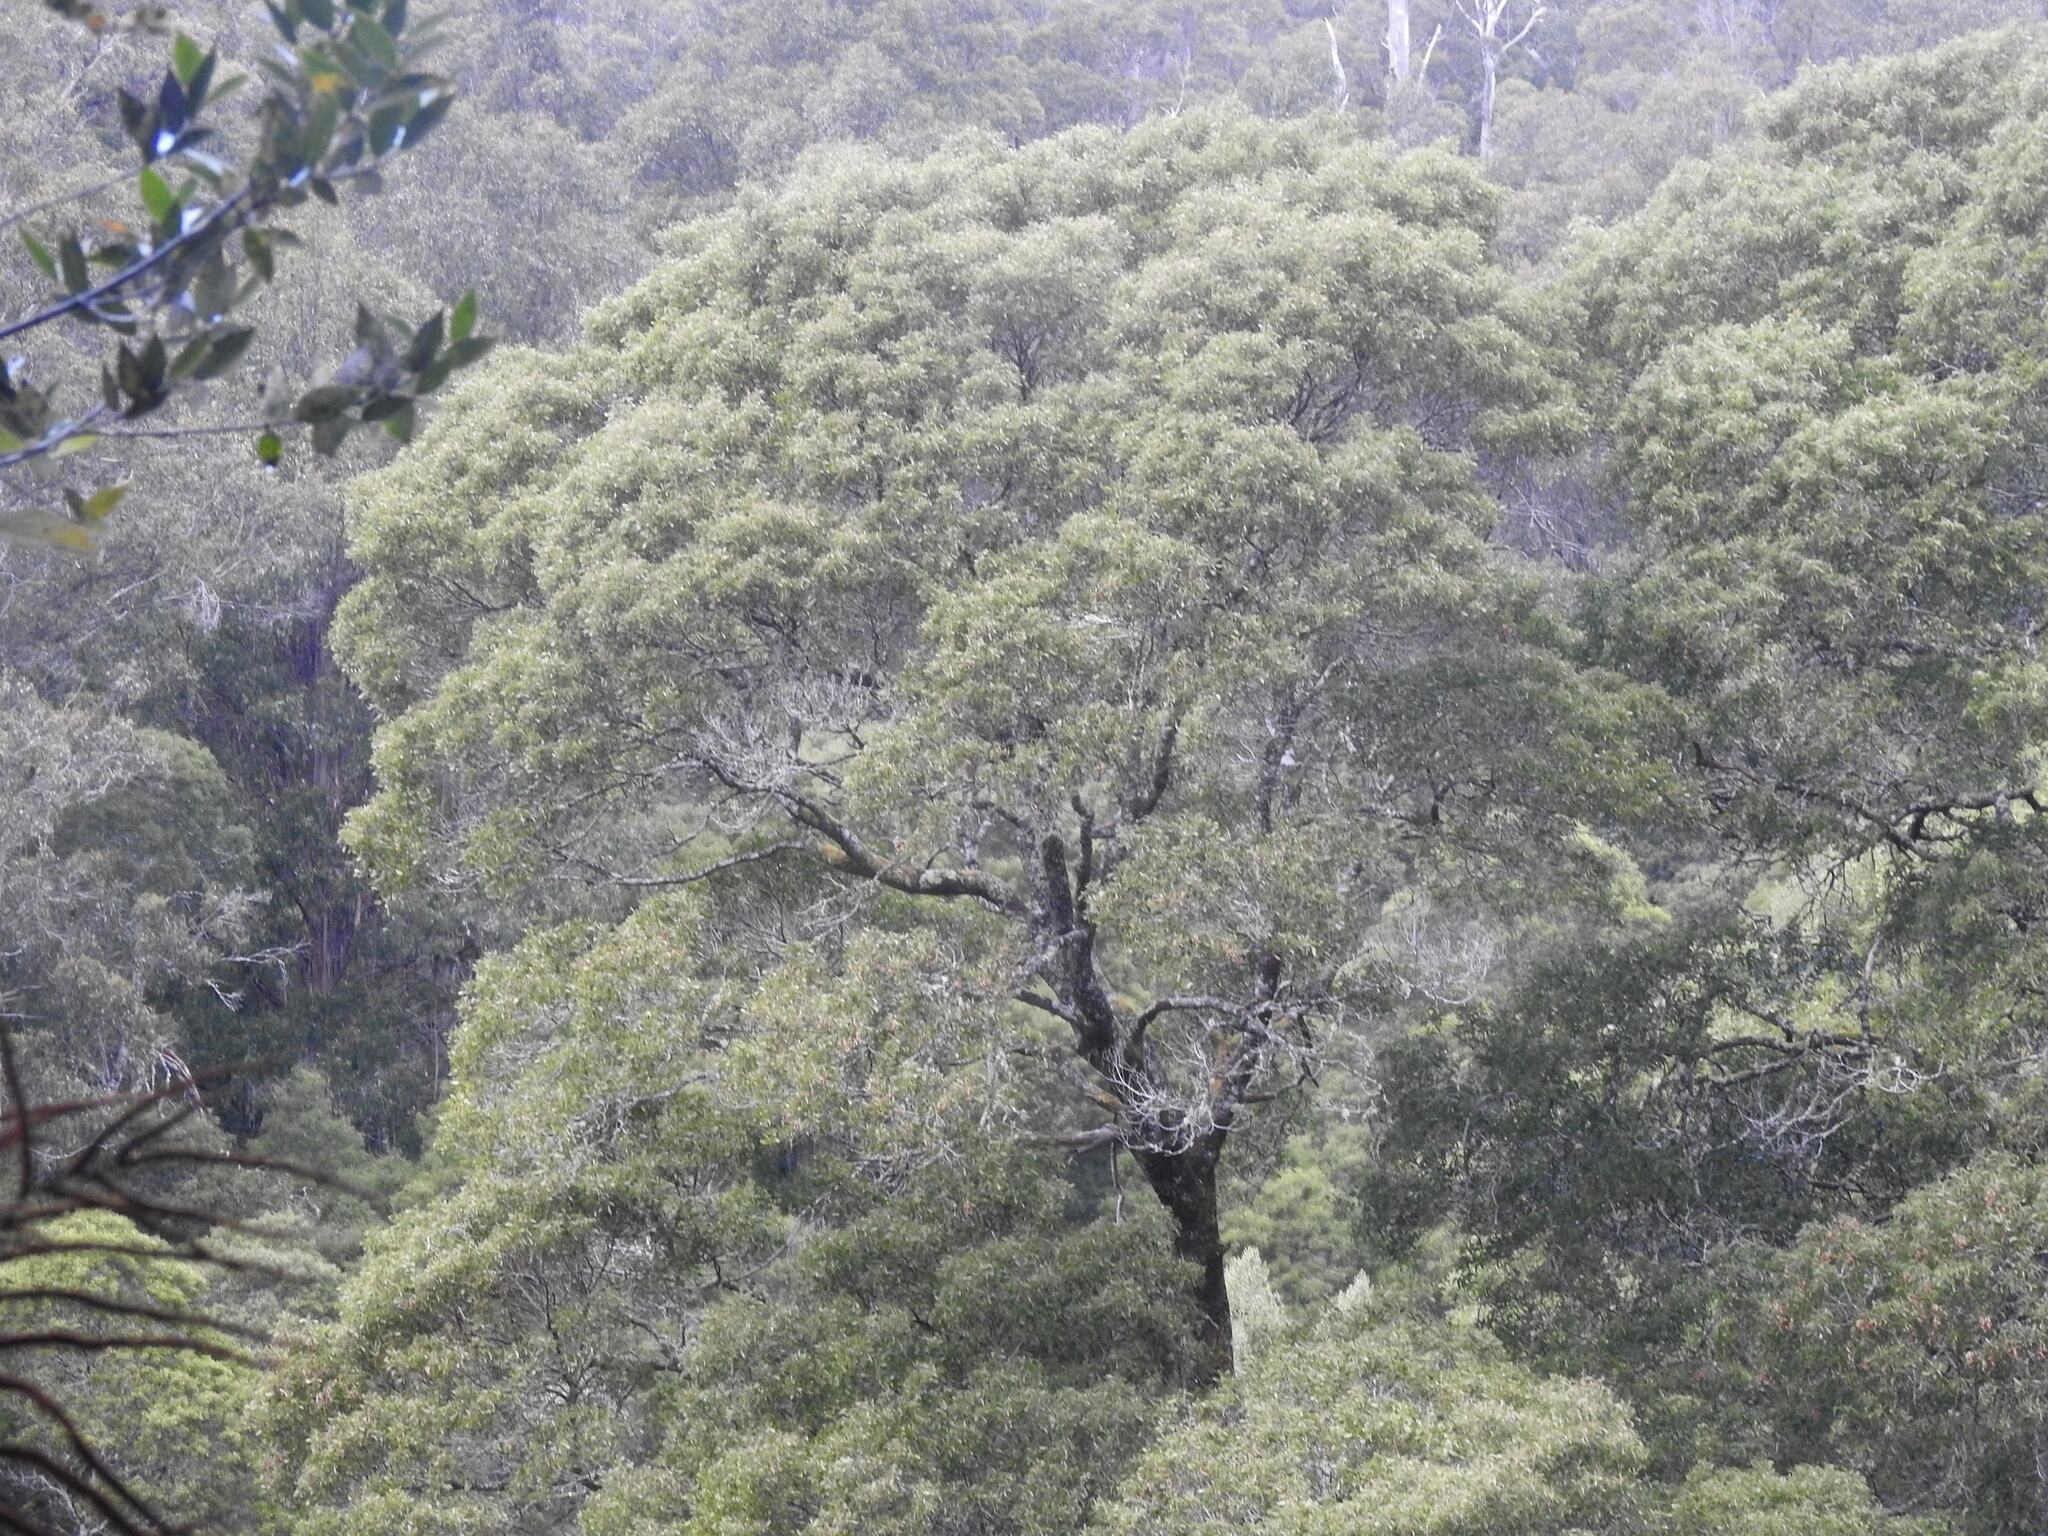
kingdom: Plantae
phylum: Tracheophyta
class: Magnoliopsida
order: Fabales
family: Fabaceae
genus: Acacia
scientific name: Acacia melanoxylon
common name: Blackwood
